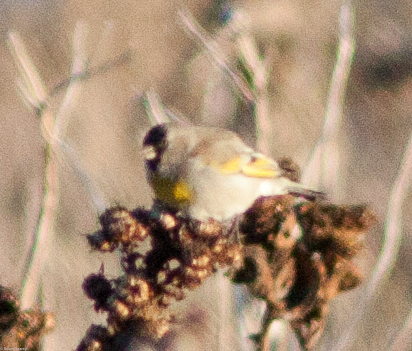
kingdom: Animalia
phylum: Chordata
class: Aves
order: Passeriformes
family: Fringillidae
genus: Spinus
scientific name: Spinus lawrencei
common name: Lawrence's goldfinch
